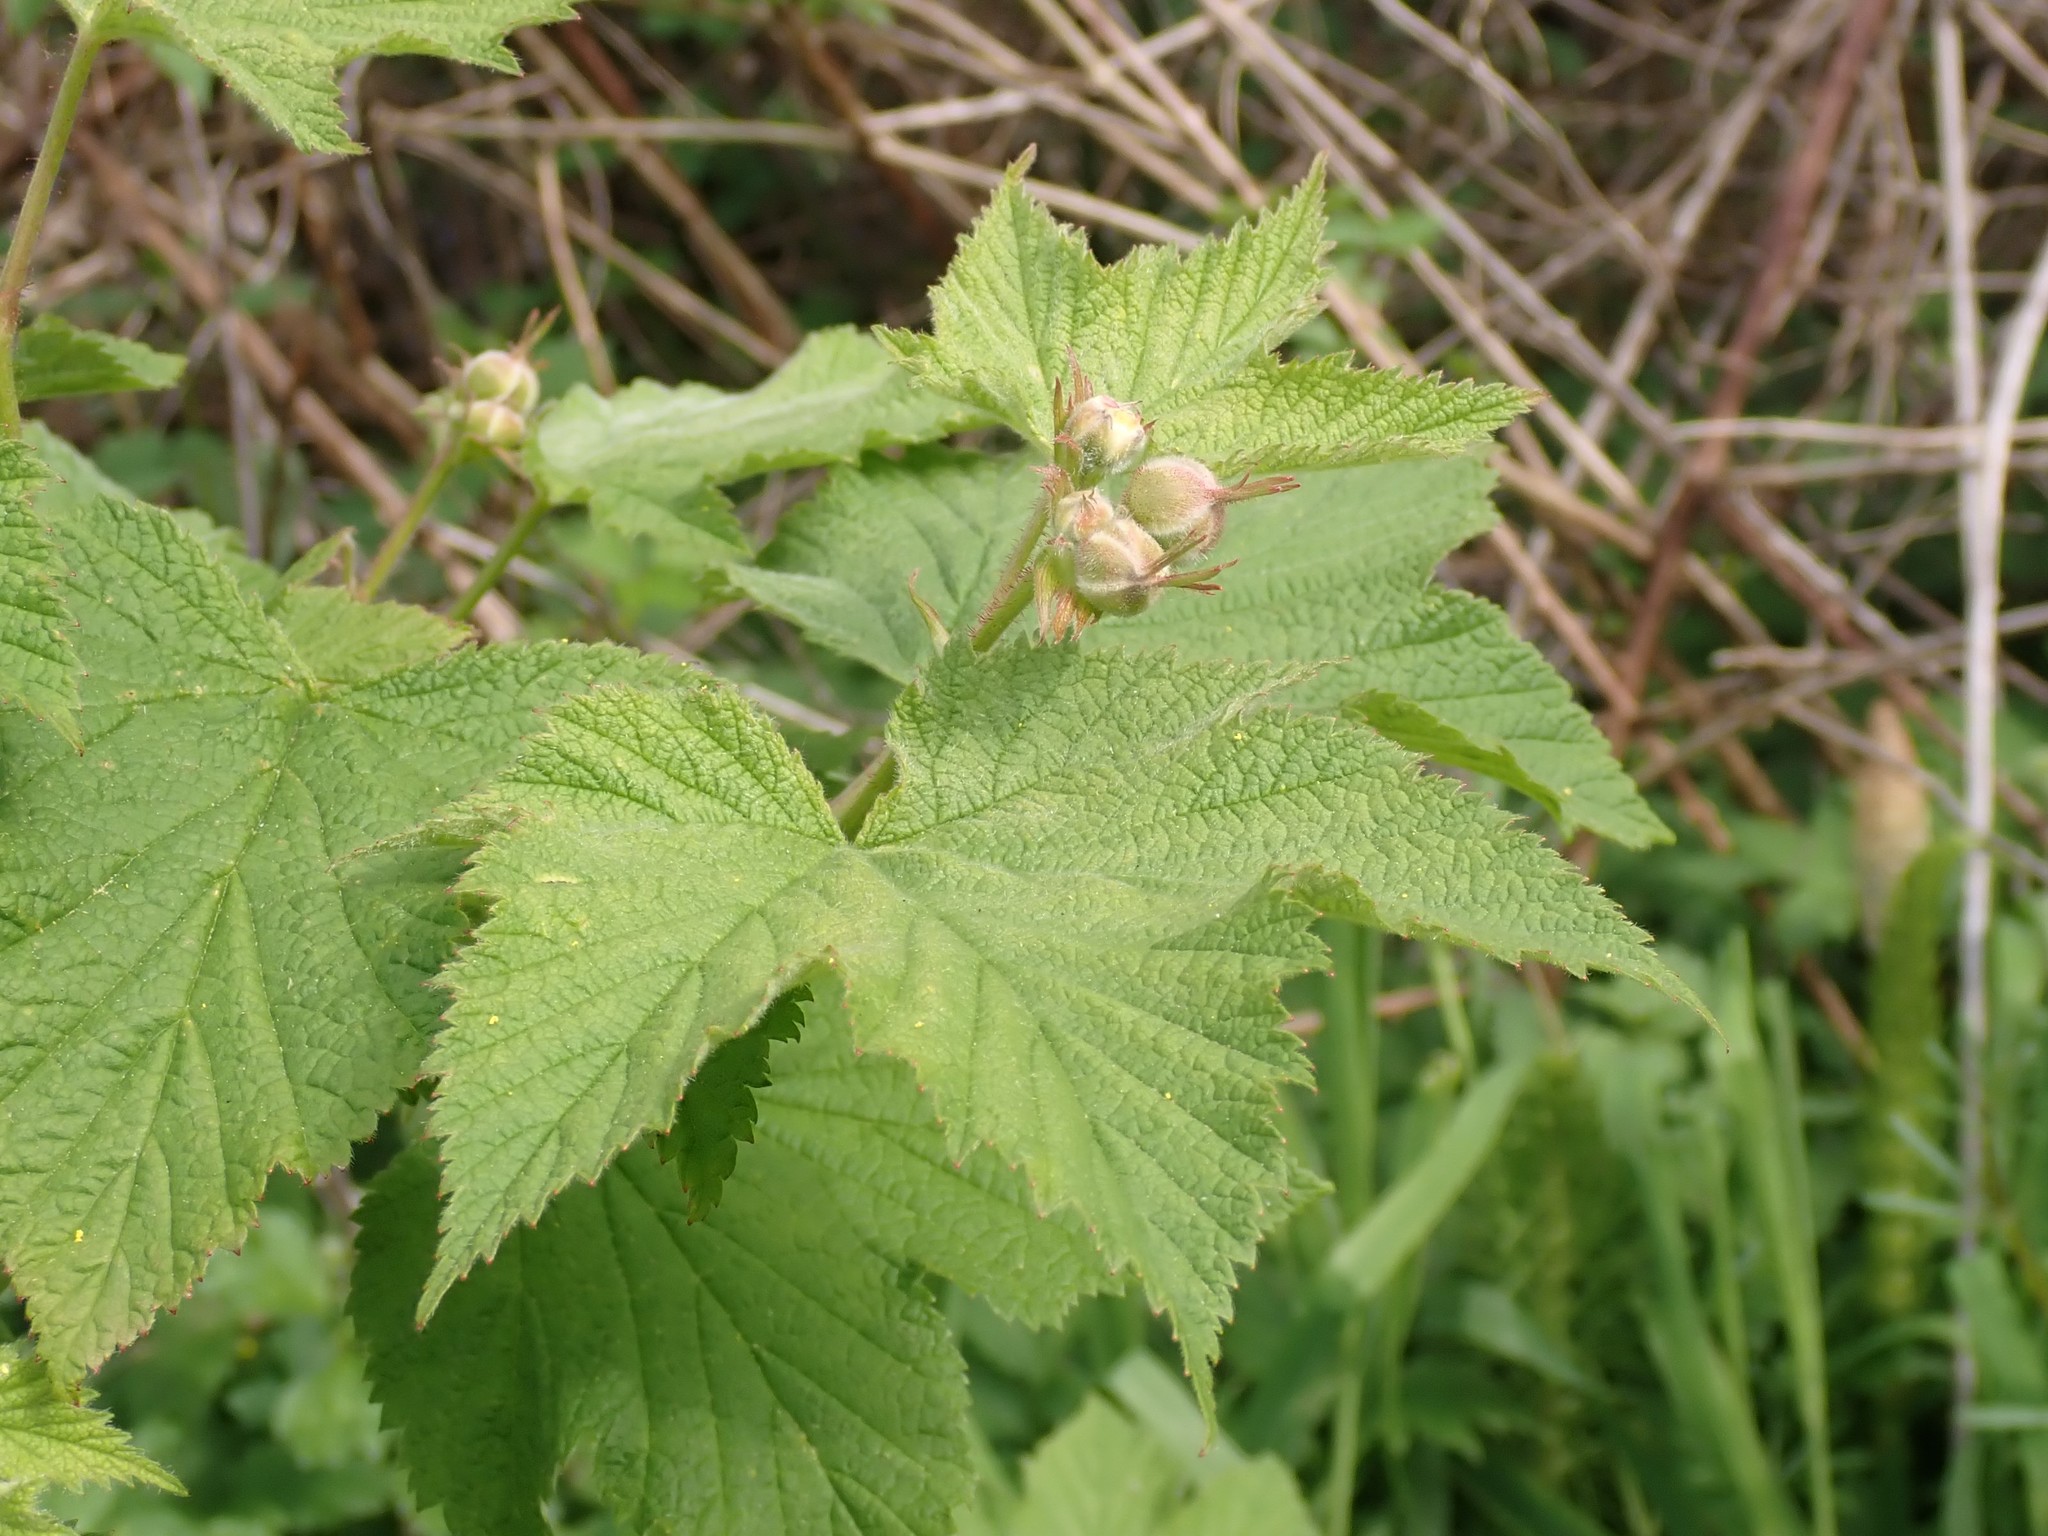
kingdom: Plantae
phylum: Tracheophyta
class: Magnoliopsida
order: Rosales
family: Rosaceae
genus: Rubus
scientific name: Rubus parviflorus
